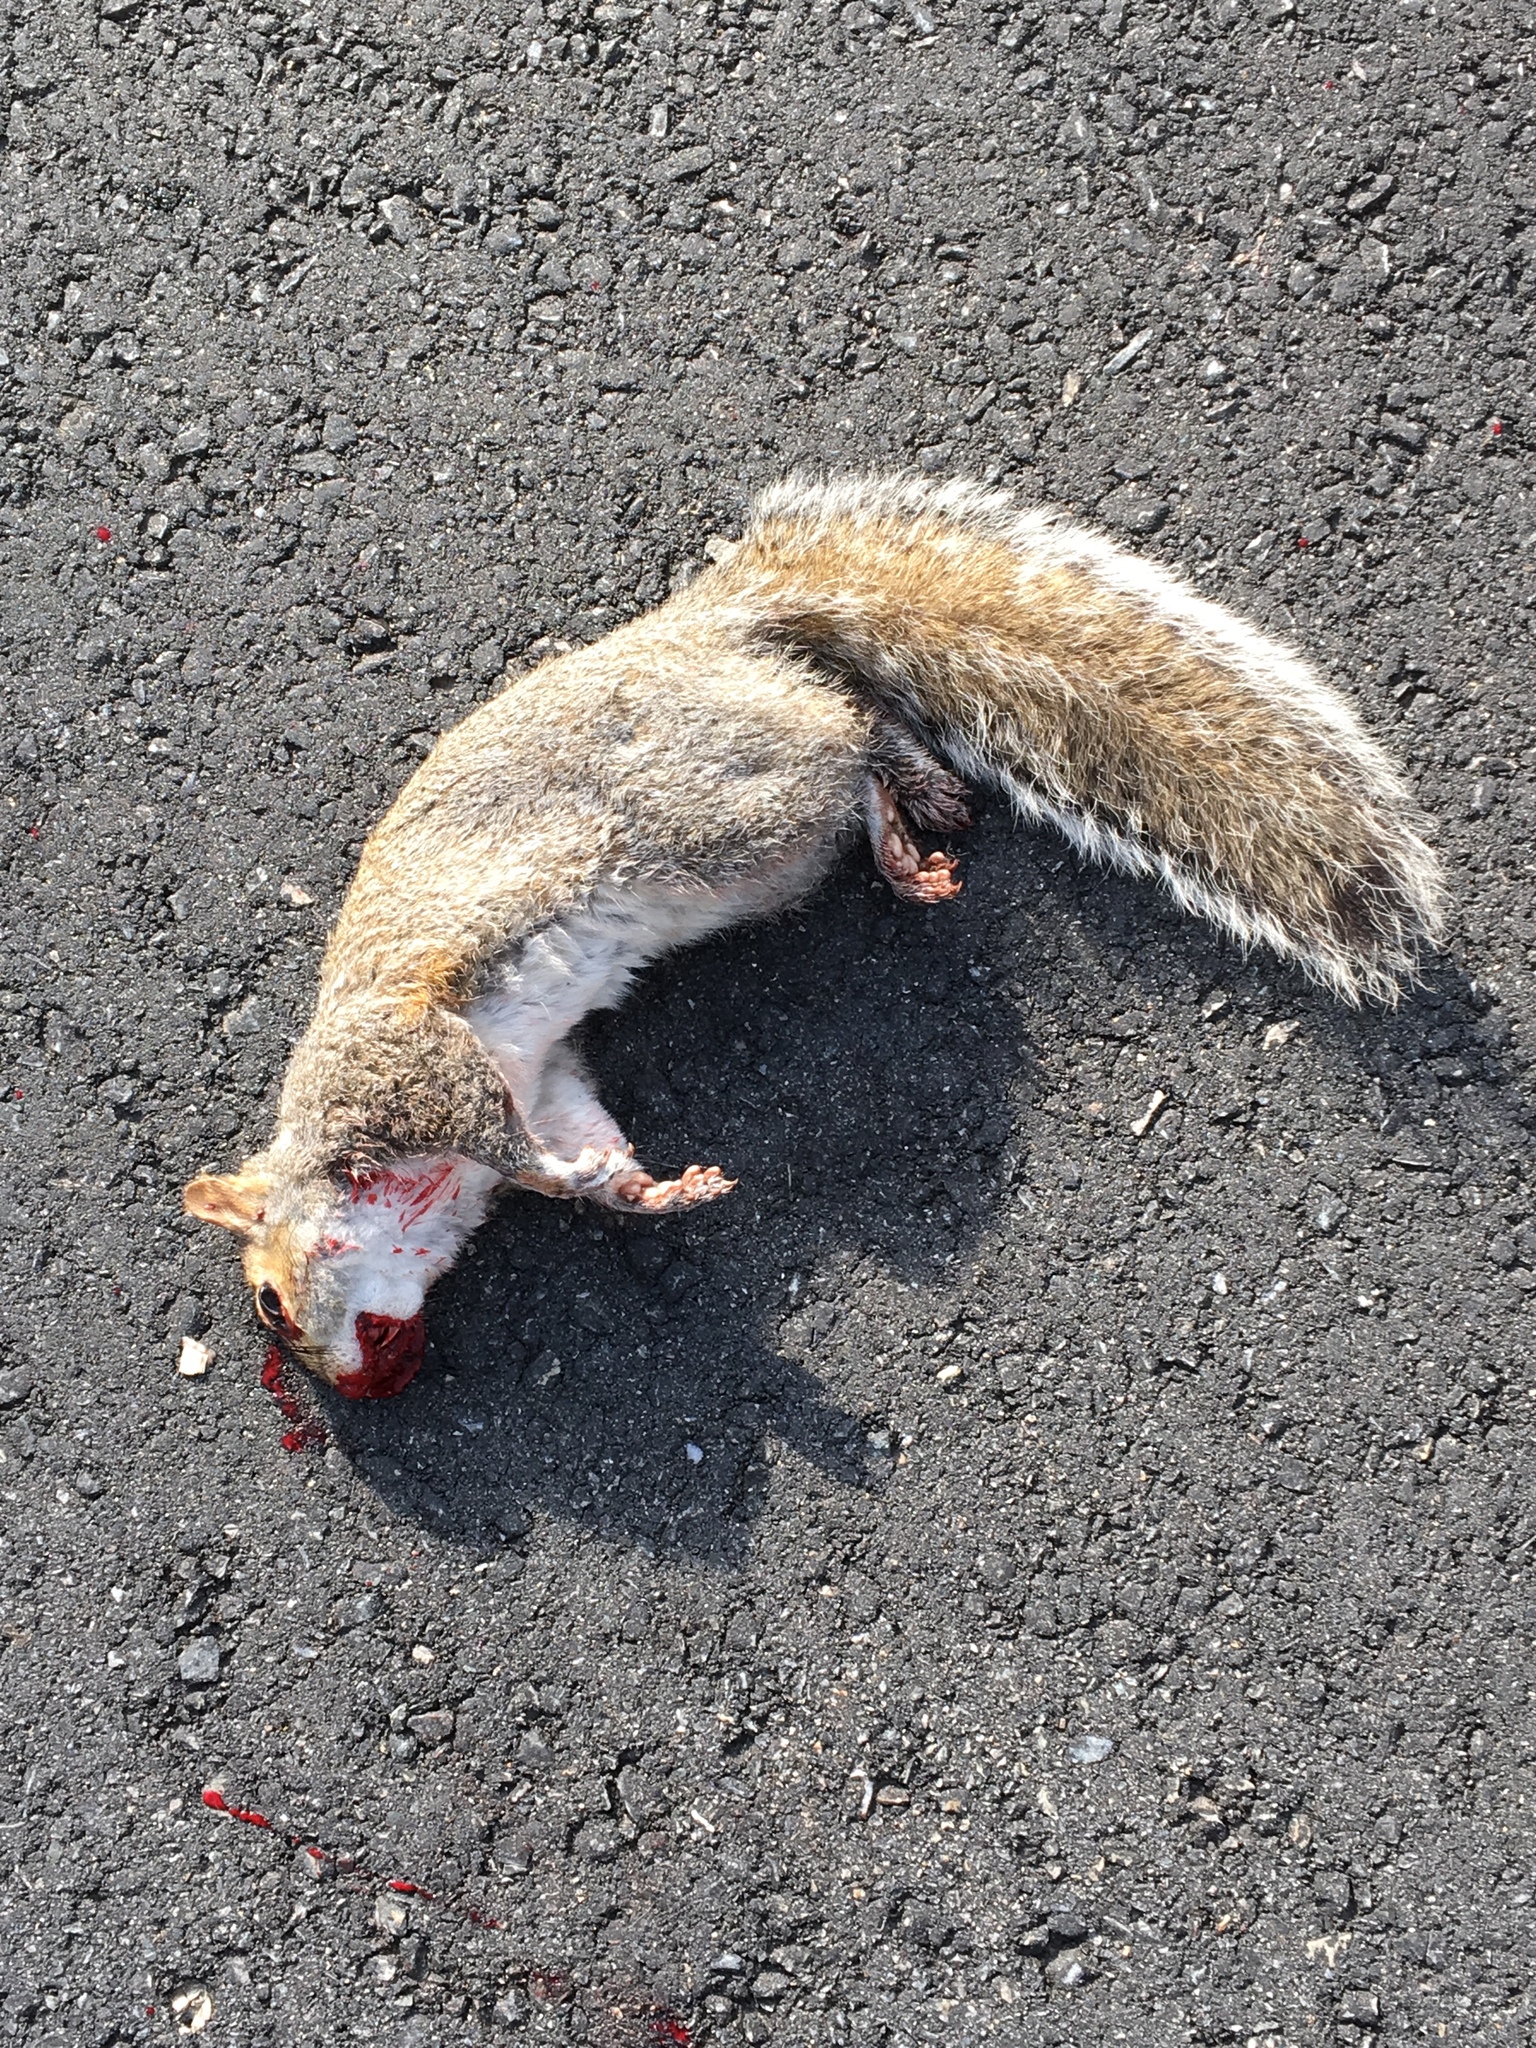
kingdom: Animalia
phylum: Chordata
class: Mammalia
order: Rodentia
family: Sciuridae
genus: Sciurus
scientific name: Sciurus carolinensis
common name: Eastern gray squirrel
